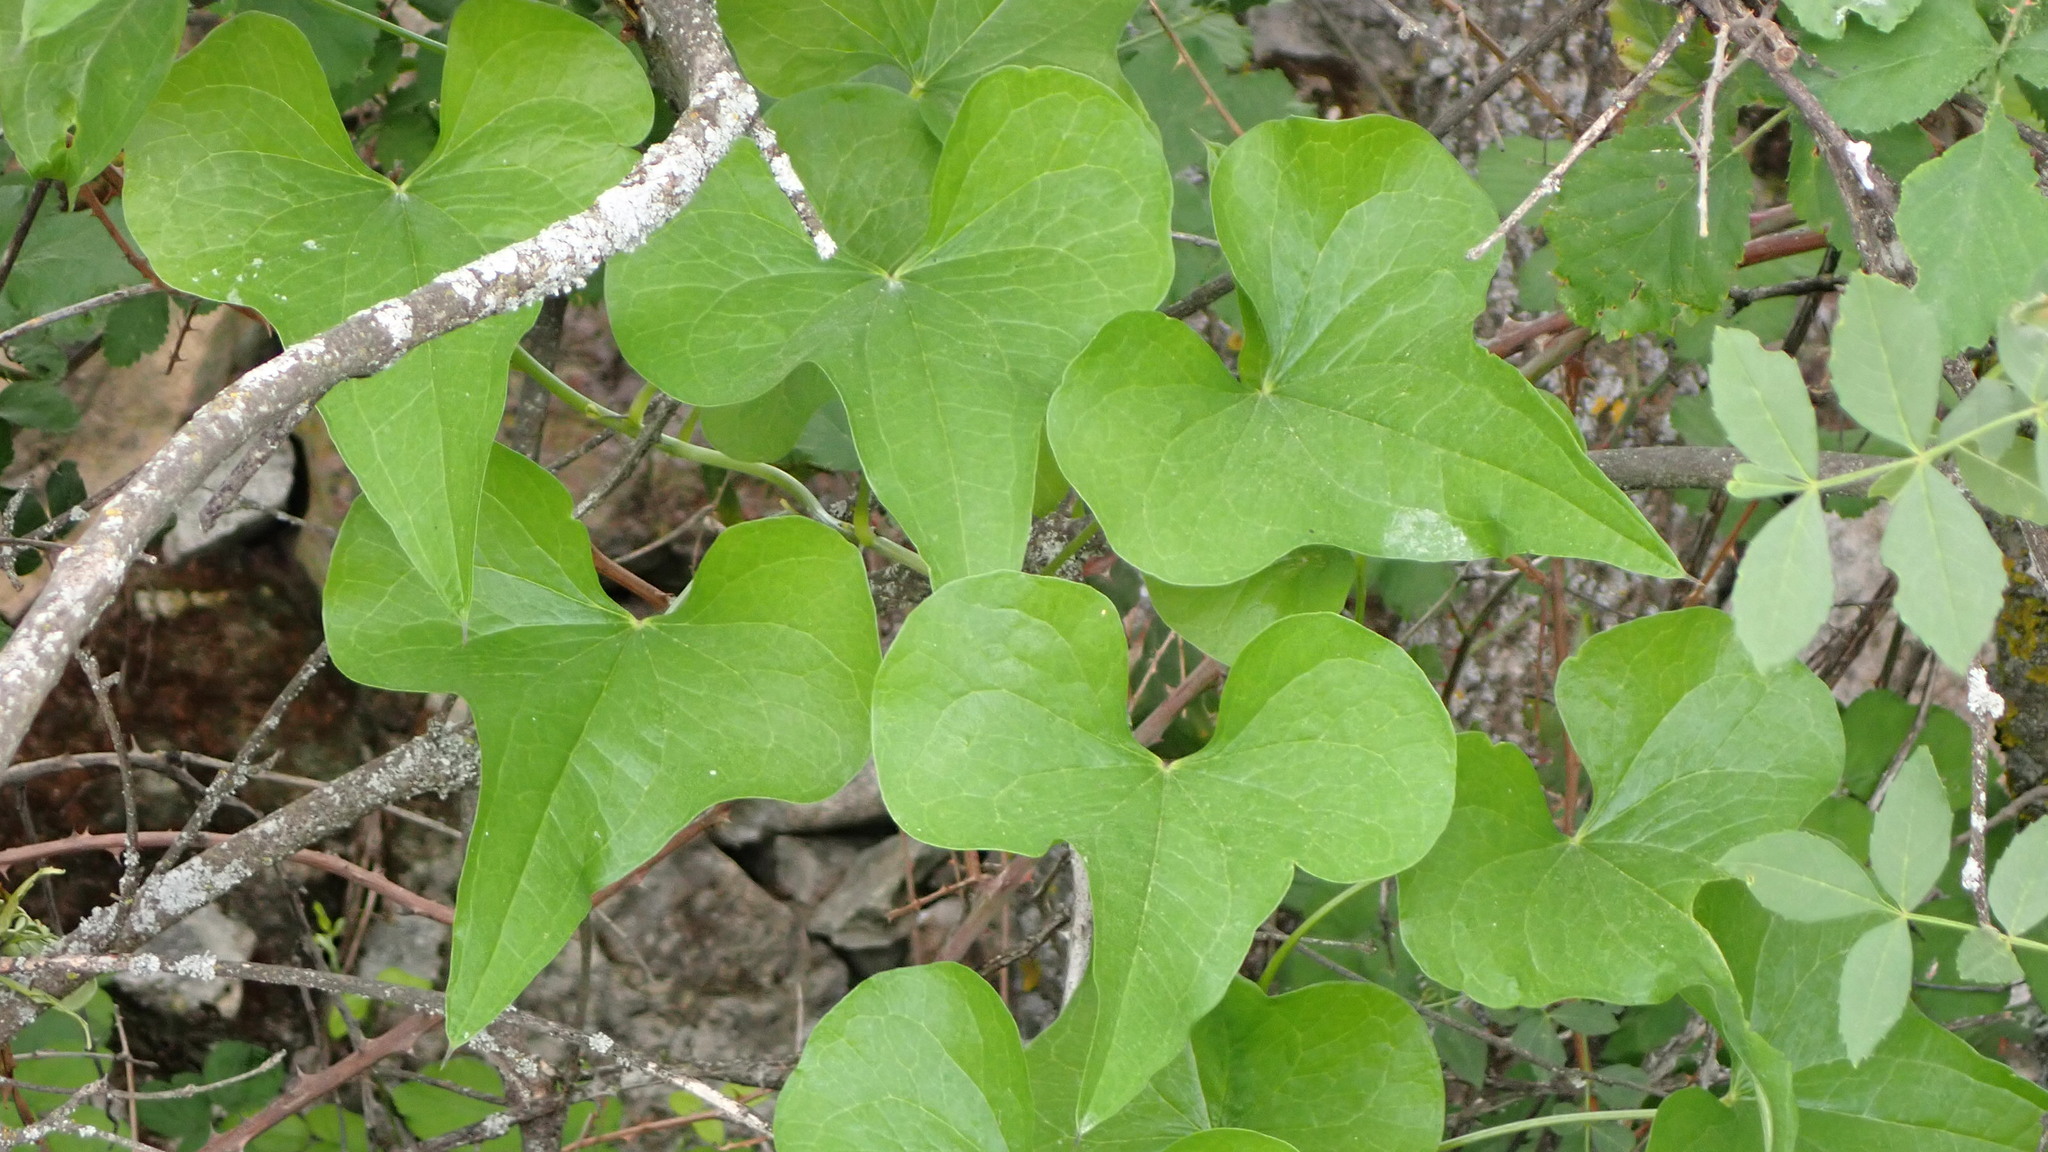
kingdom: Plantae
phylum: Tracheophyta
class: Liliopsida
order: Dioscoreales
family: Dioscoreaceae
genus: Dioscorea
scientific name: Dioscorea communis
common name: Black-bindweed
